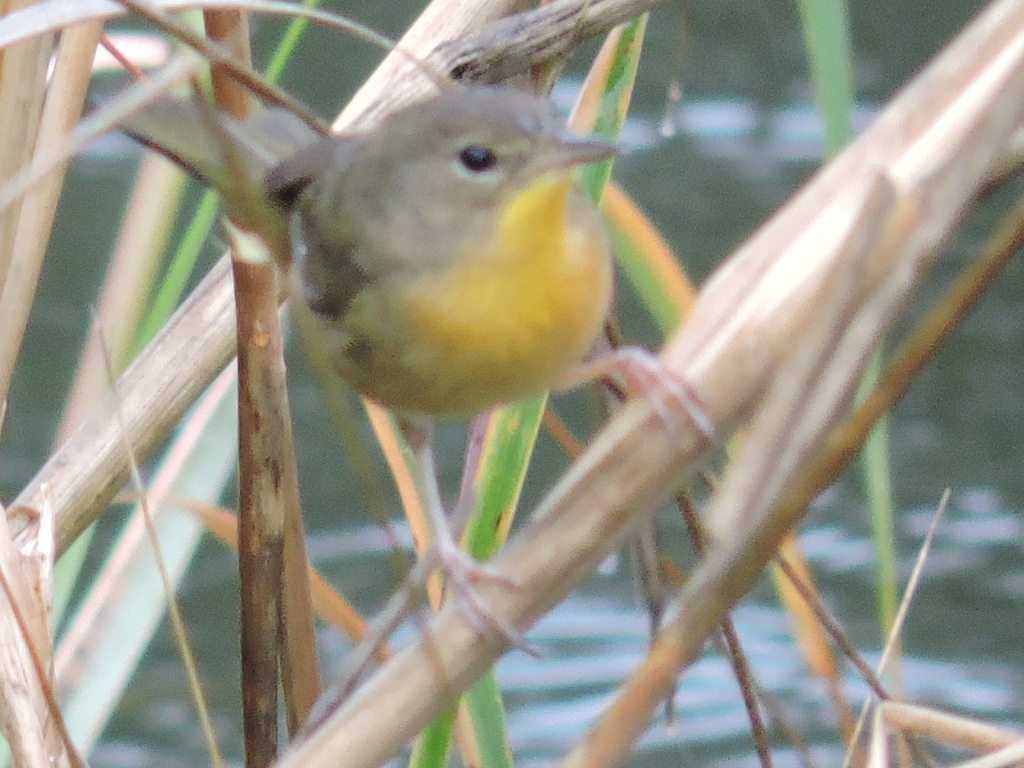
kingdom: Animalia
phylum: Chordata
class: Aves
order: Passeriformes
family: Parulidae
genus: Geothlypis
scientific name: Geothlypis trichas
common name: Common yellowthroat
